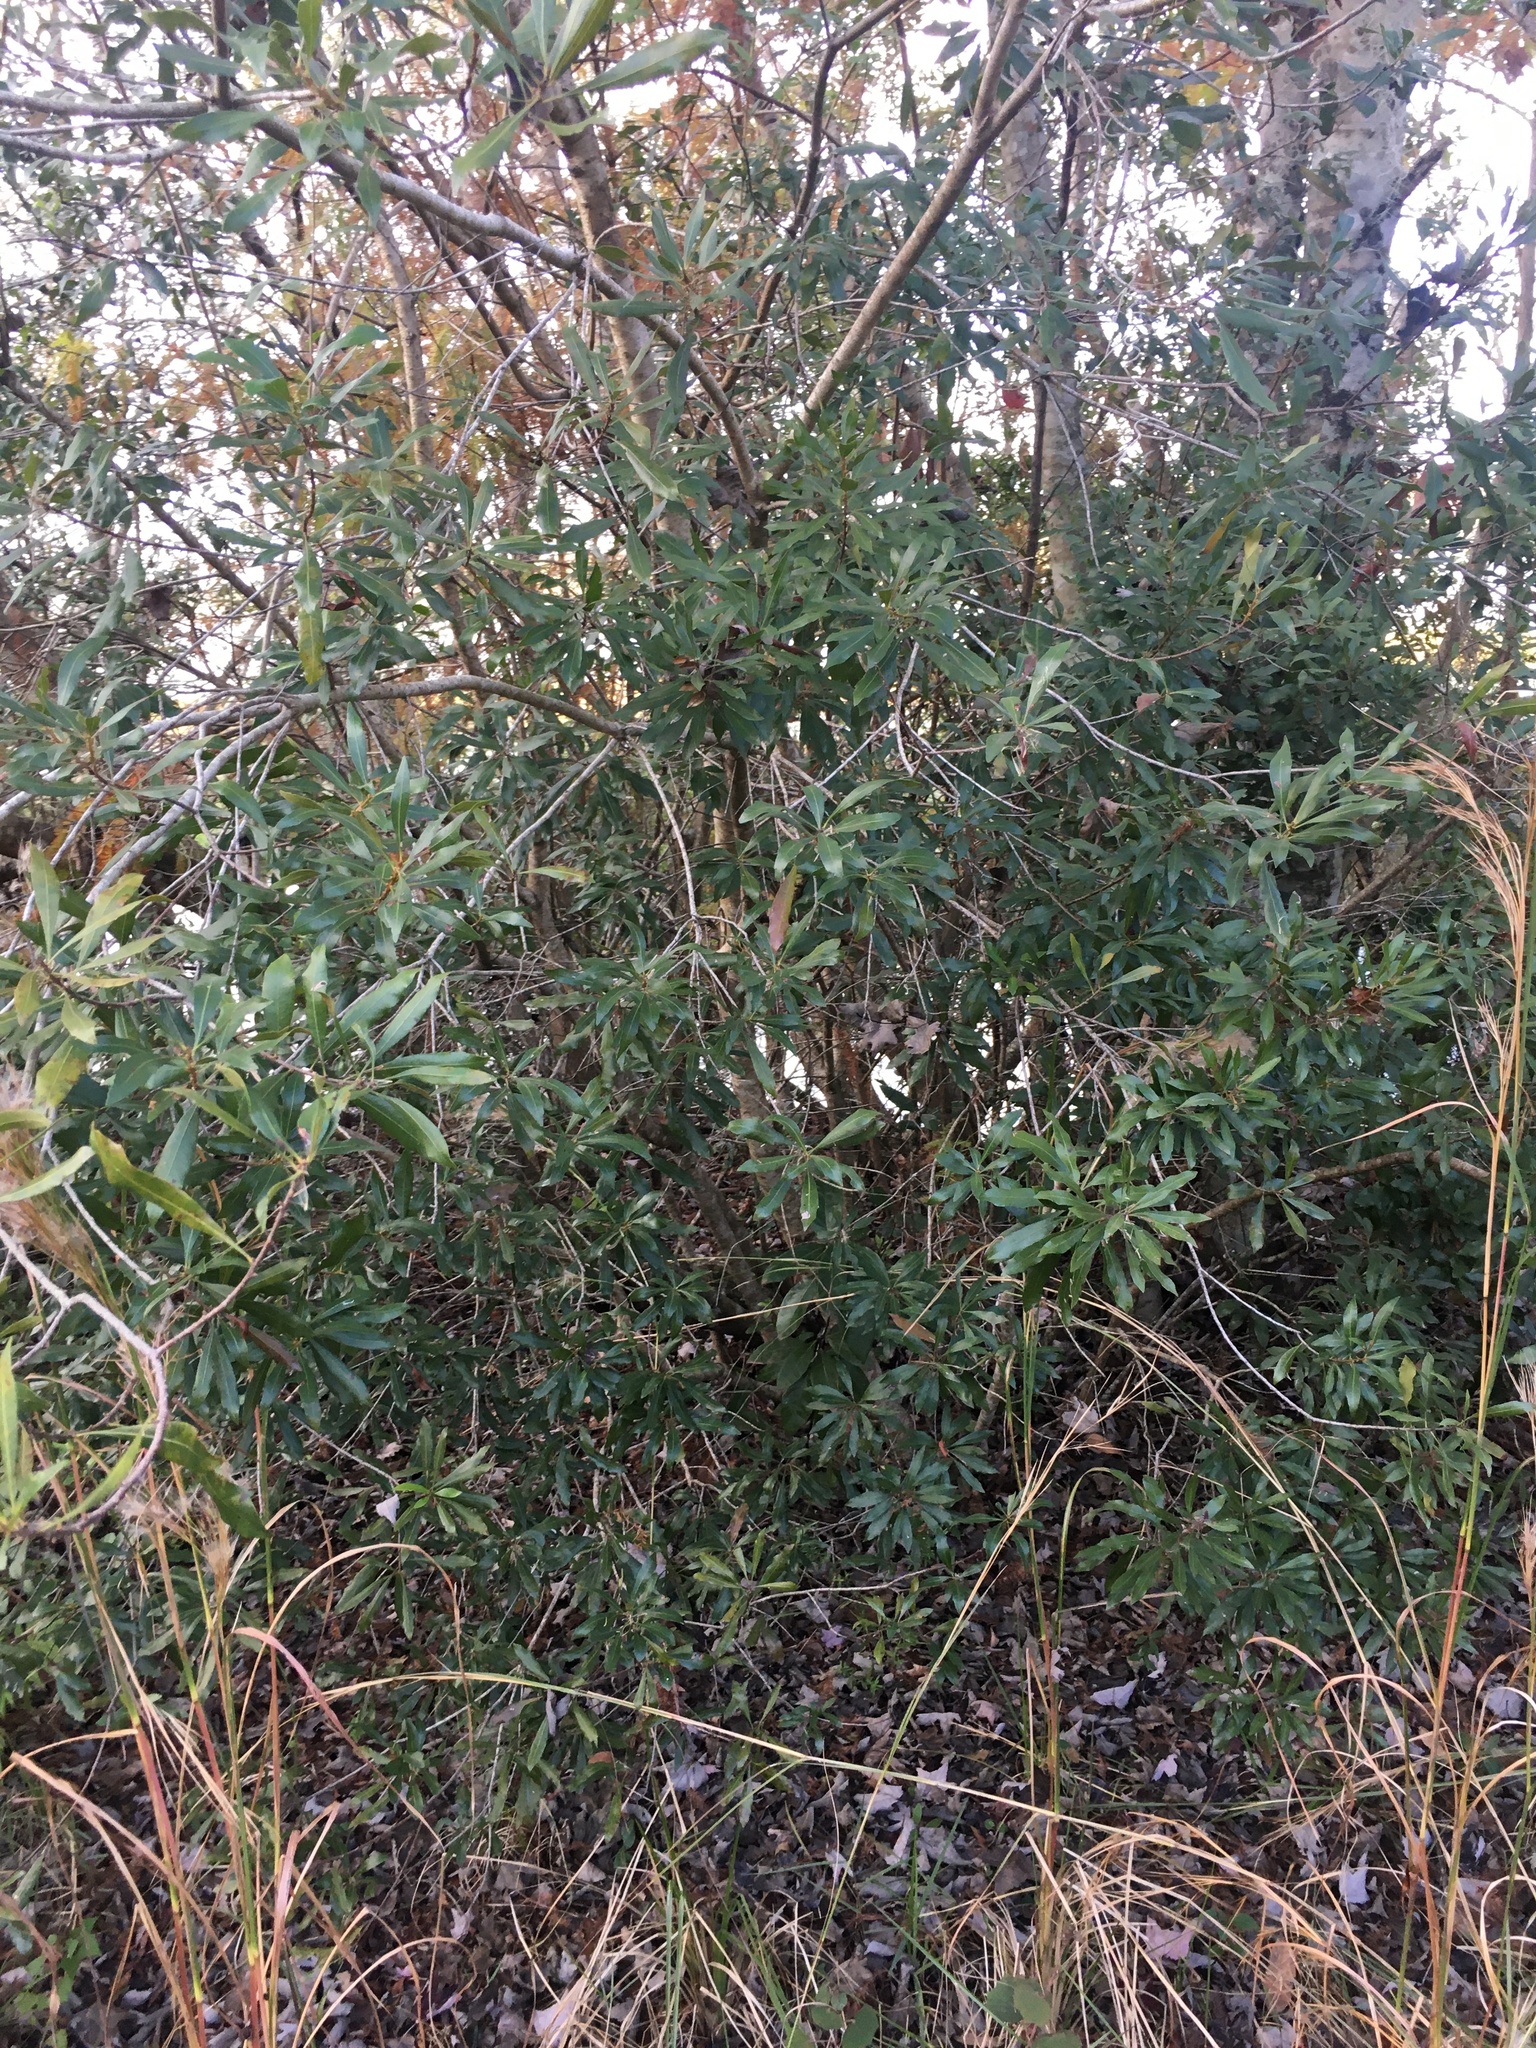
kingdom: Plantae
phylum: Tracheophyta
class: Magnoliopsida
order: Fagales
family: Myricaceae
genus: Morella
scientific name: Morella cerifera
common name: Wax myrtle
